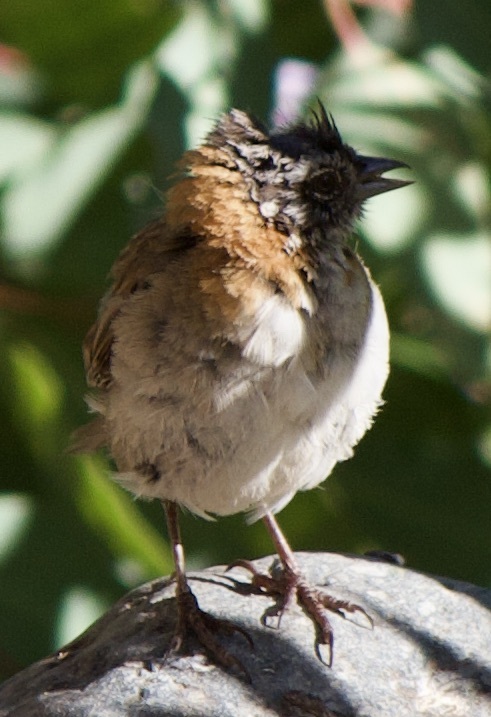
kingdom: Animalia
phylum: Chordata
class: Aves
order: Passeriformes
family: Passerellidae
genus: Zonotrichia
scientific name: Zonotrichia capensis
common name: Rufous-collared sparrow
